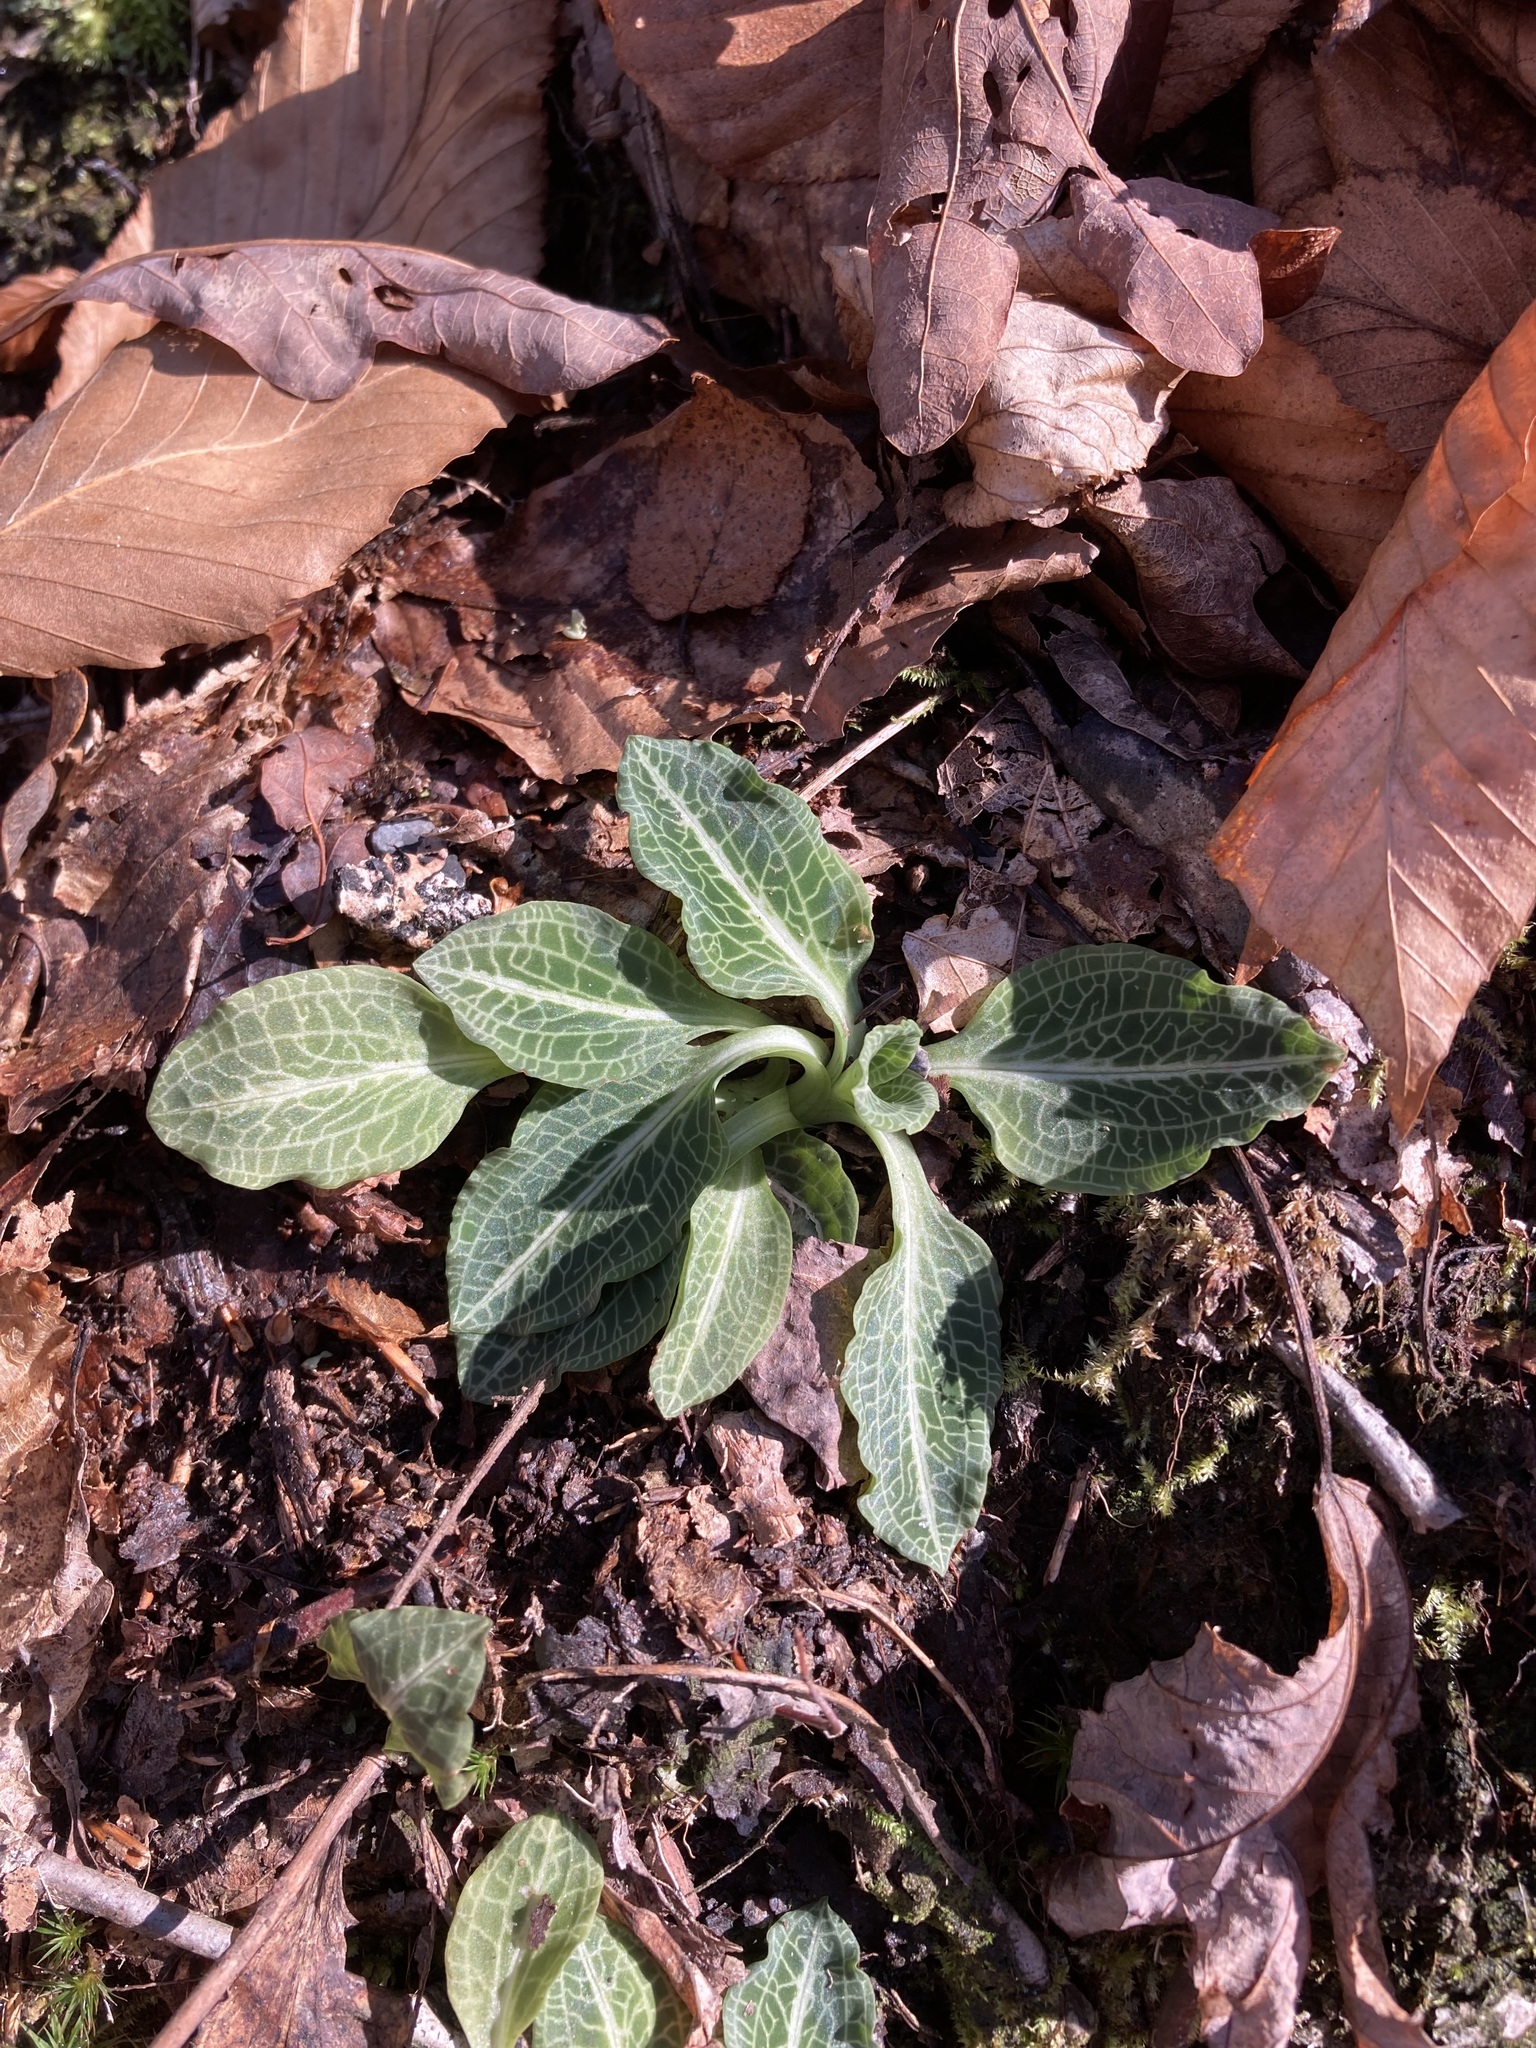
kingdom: Plantae
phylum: Tracheophyta
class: Liliopsida
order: Asparagales
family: Orchidaceae
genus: Goodyera
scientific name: Goodyera pubescens
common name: Downy rattlesnake-plantain
